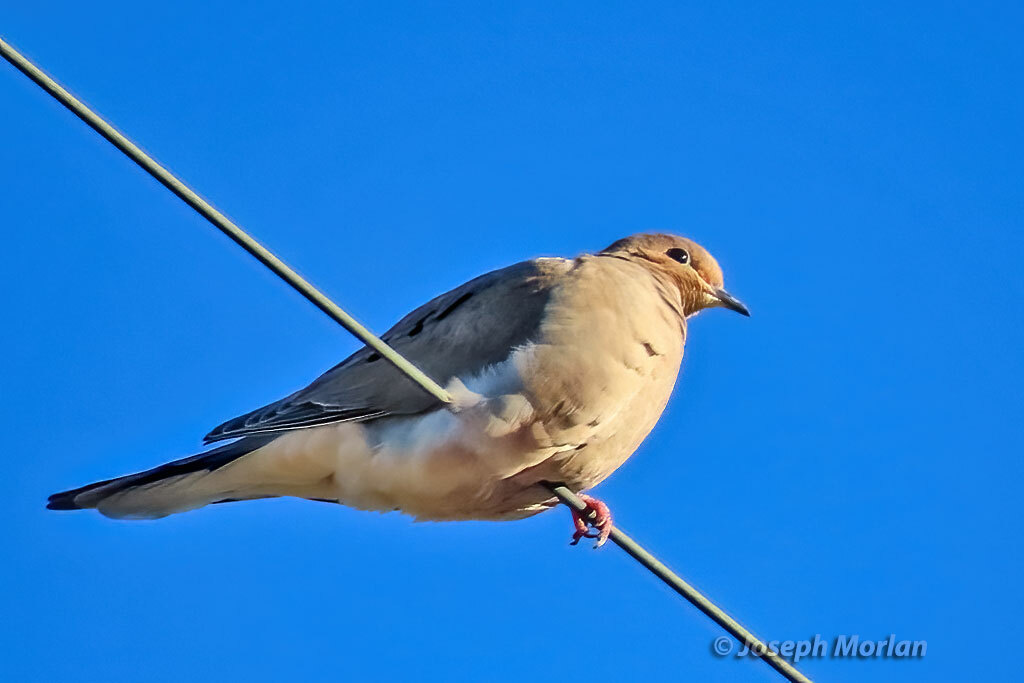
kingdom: Animalia
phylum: Chordata
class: Aves
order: Columbiformes
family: Columbidae
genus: Zenaida
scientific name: Zenaida macroura
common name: Mourning dove
